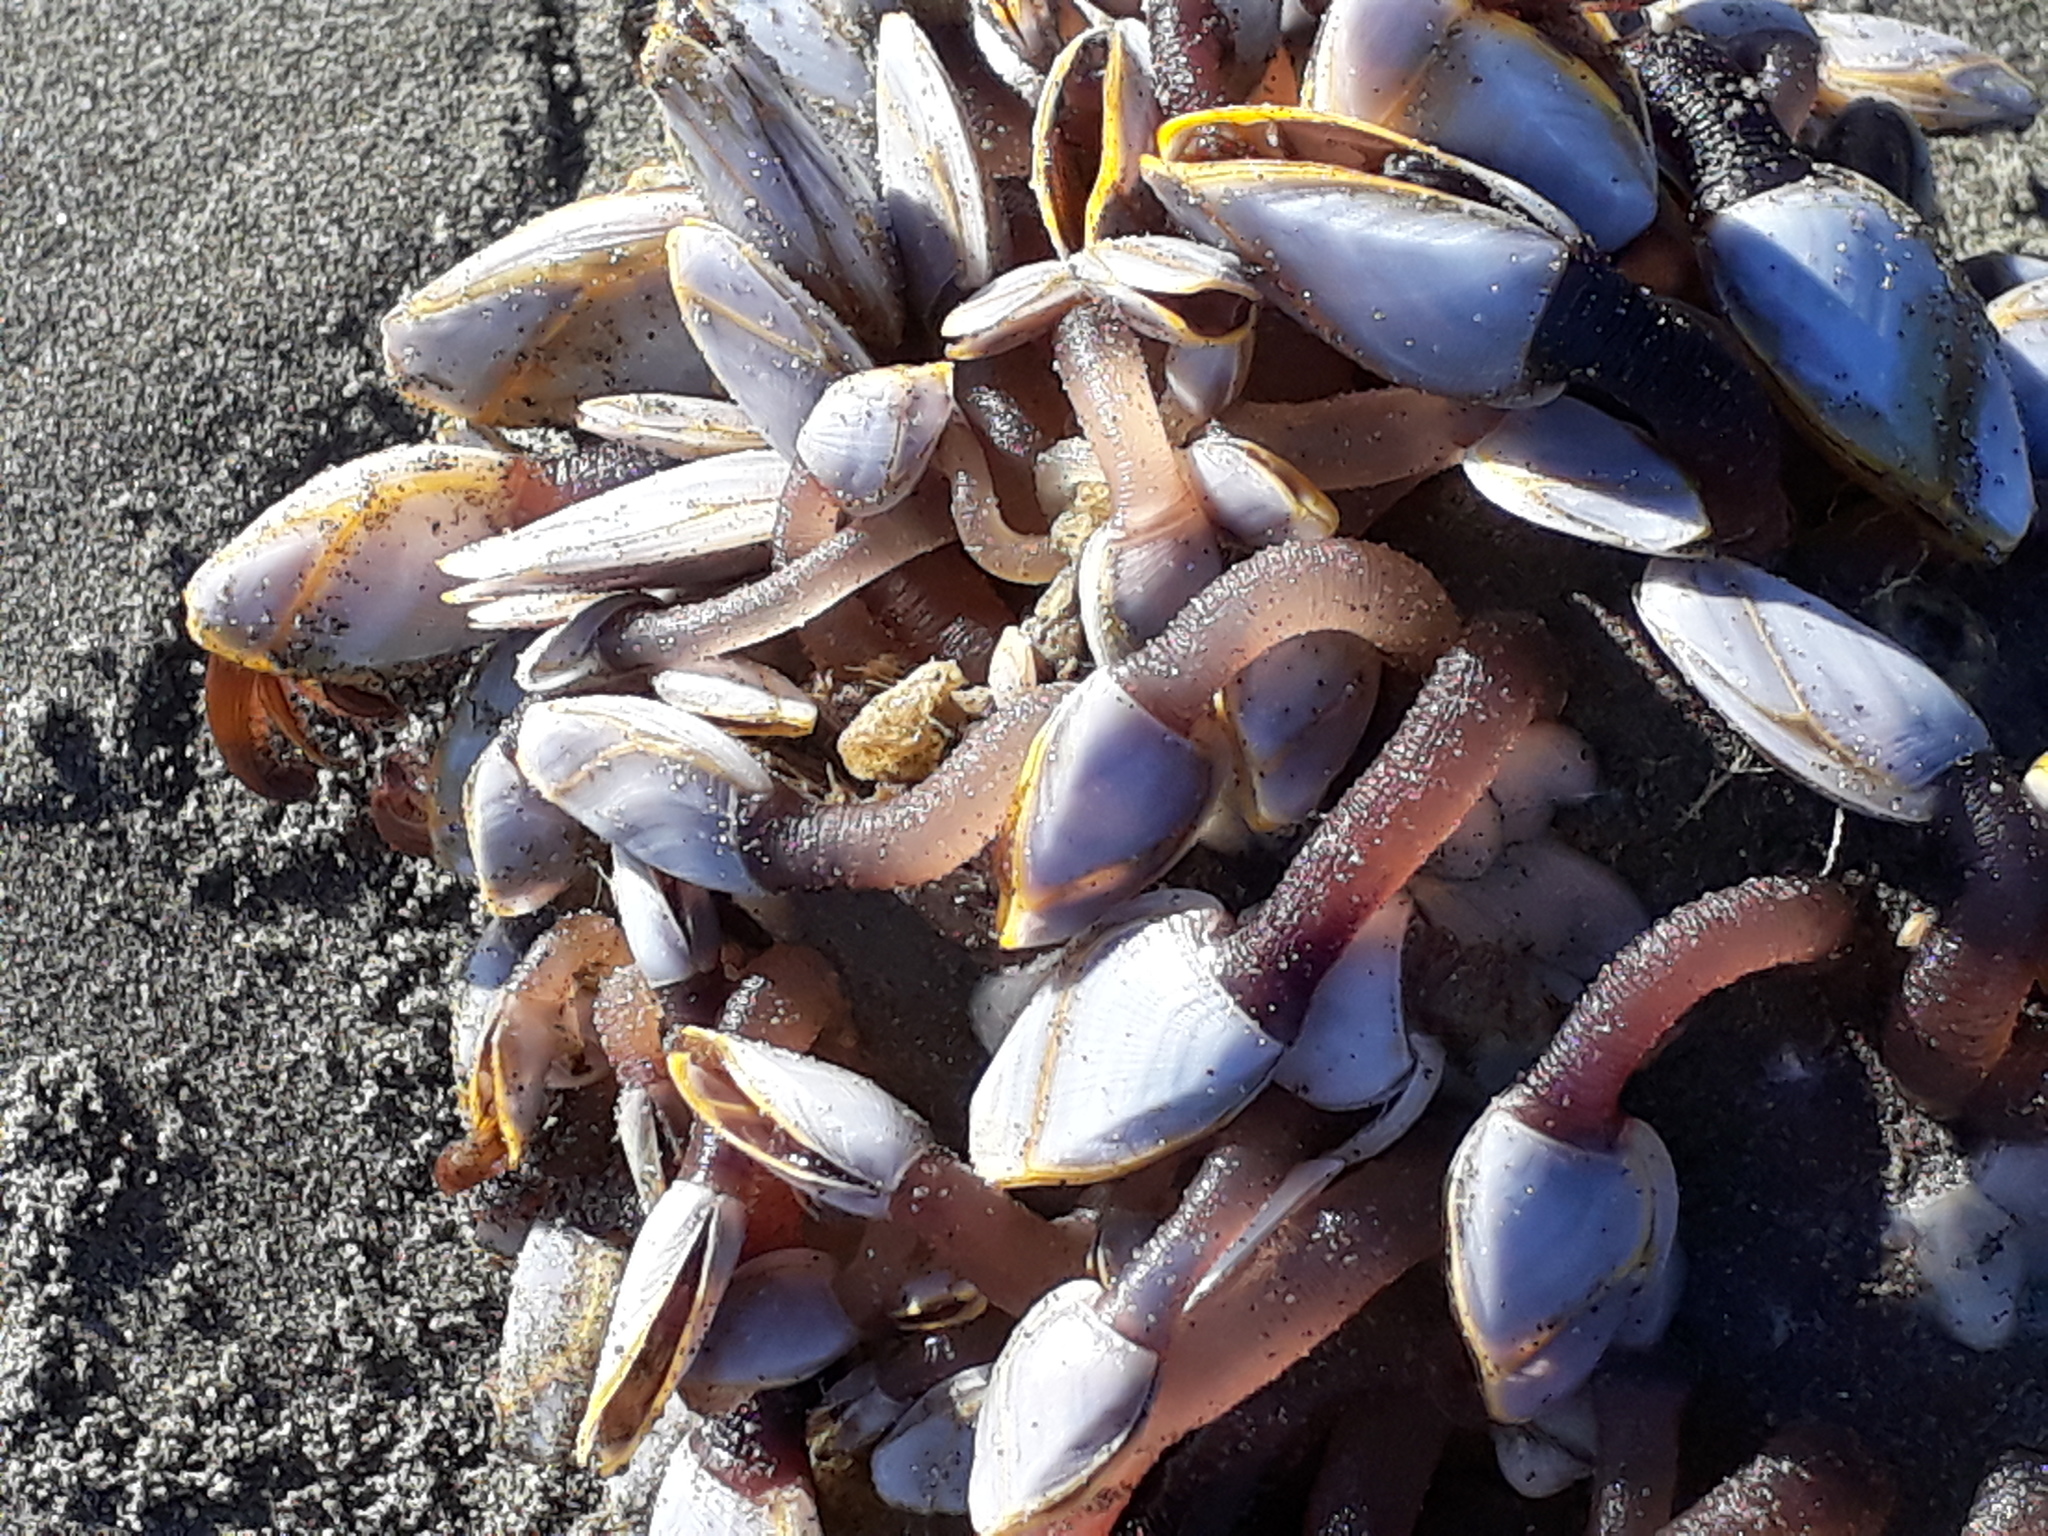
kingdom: Animalia
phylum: Arthropoda
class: Maxillopoda
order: Pedunculata
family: Lepadidae
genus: Lepas
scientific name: Lepas anatifera
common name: Common goose barnacle
